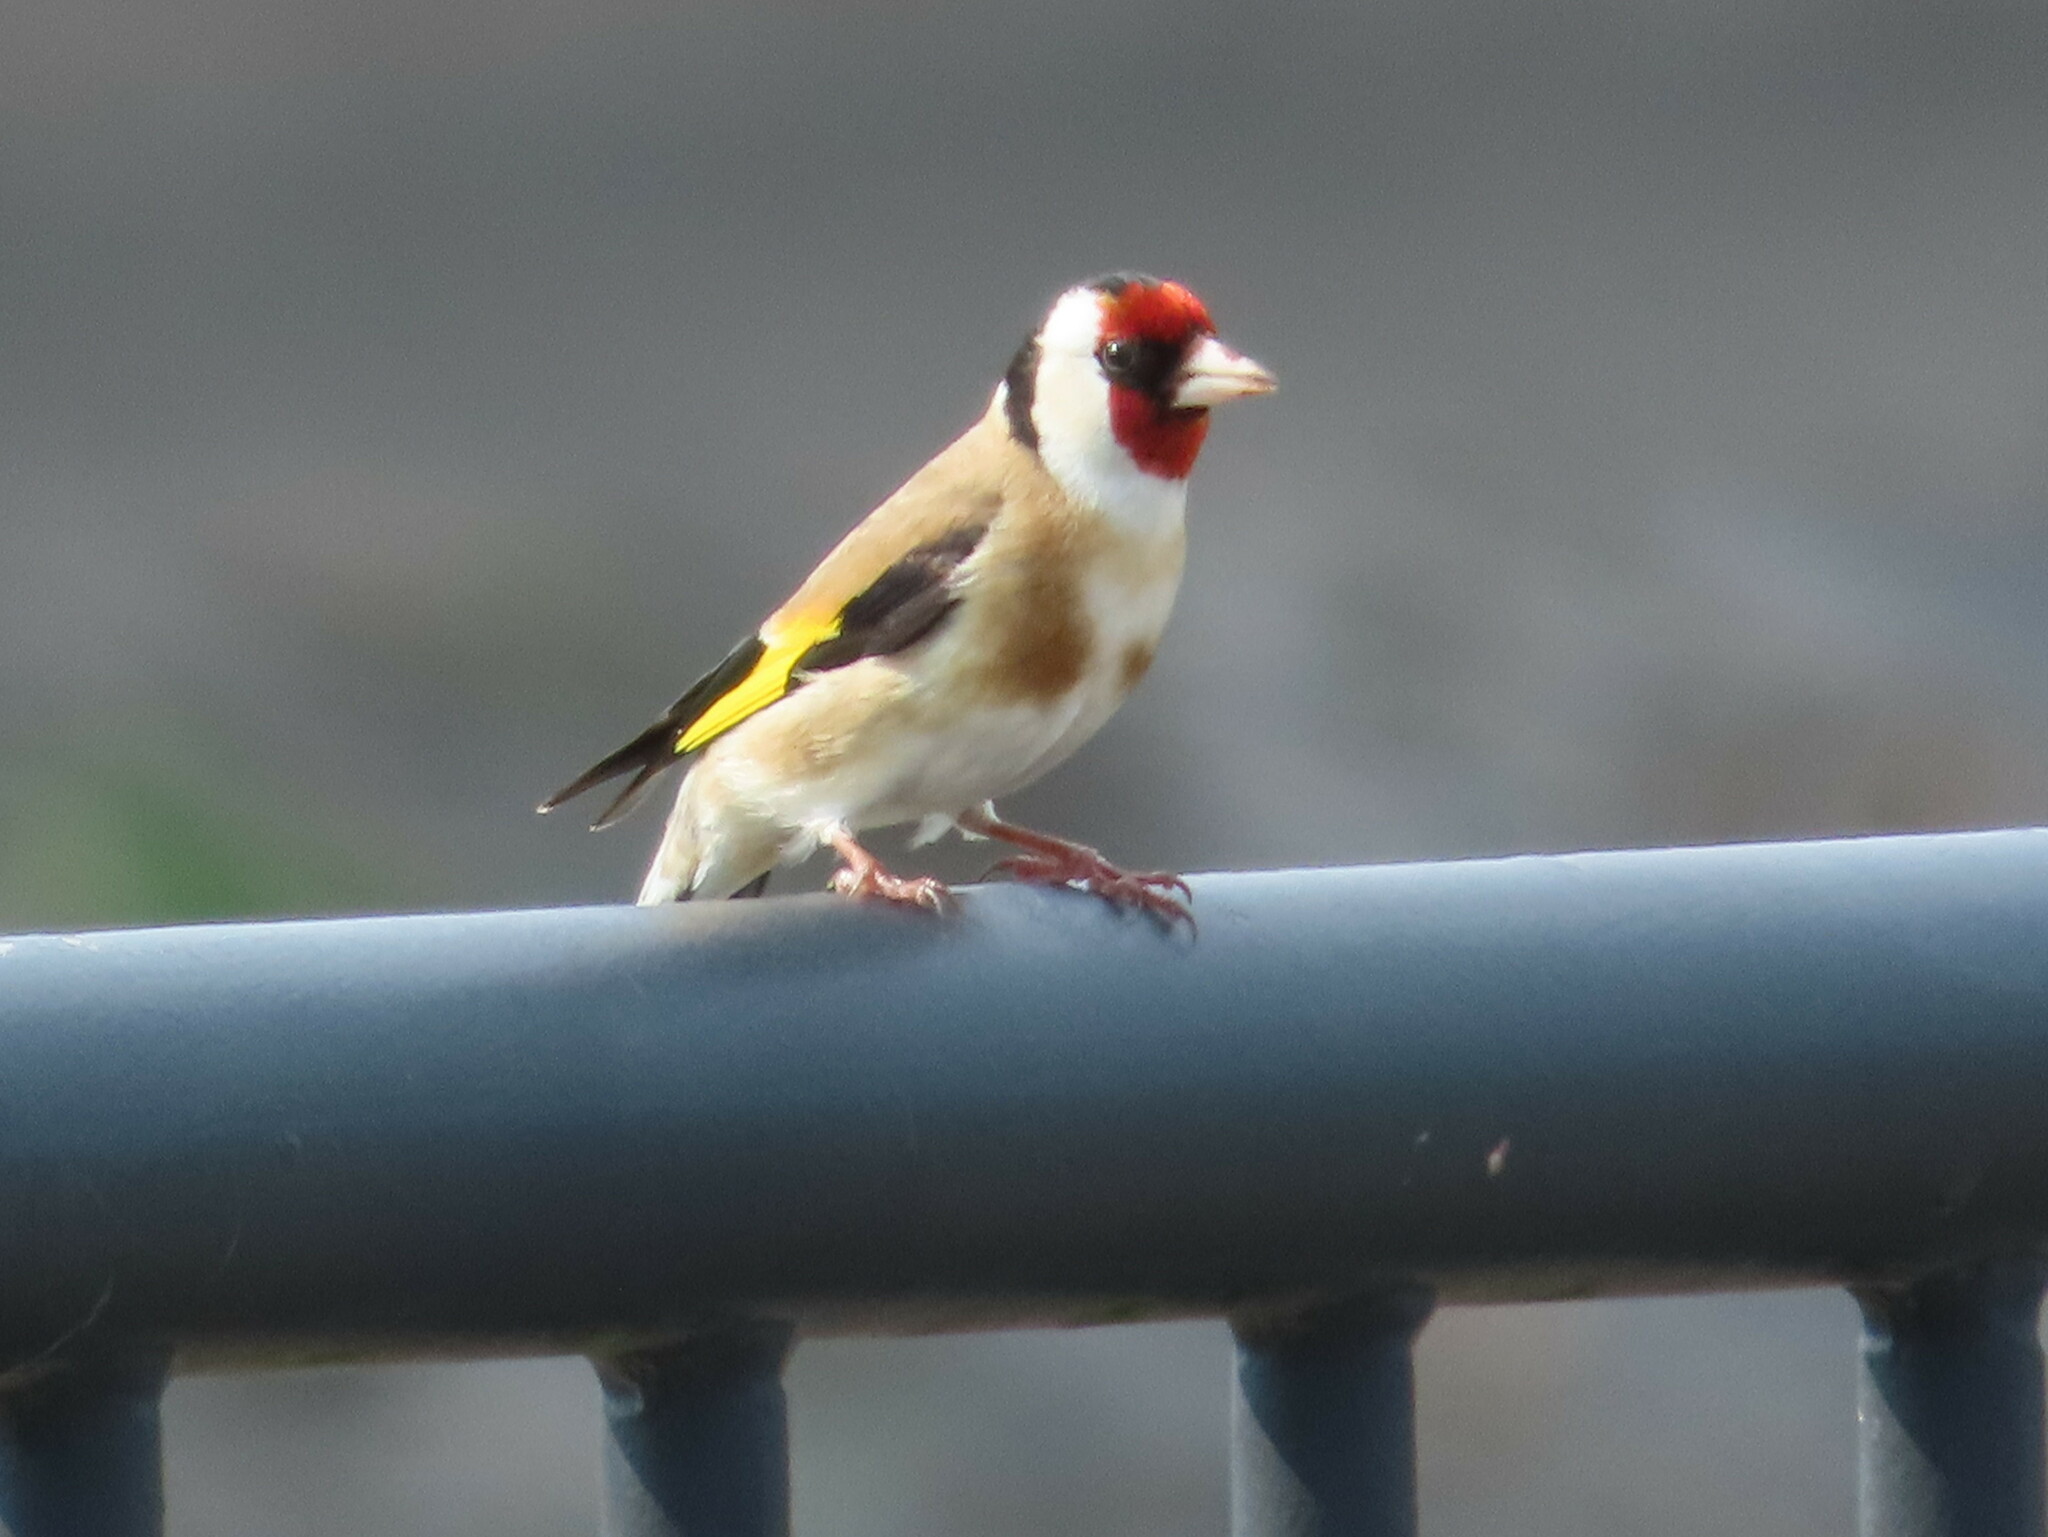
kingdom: Animalia
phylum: Chordata
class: Aves
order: Passeriformes
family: Fringillidae
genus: Carduelis
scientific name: Carduelis carduelis
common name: European goldfinch
